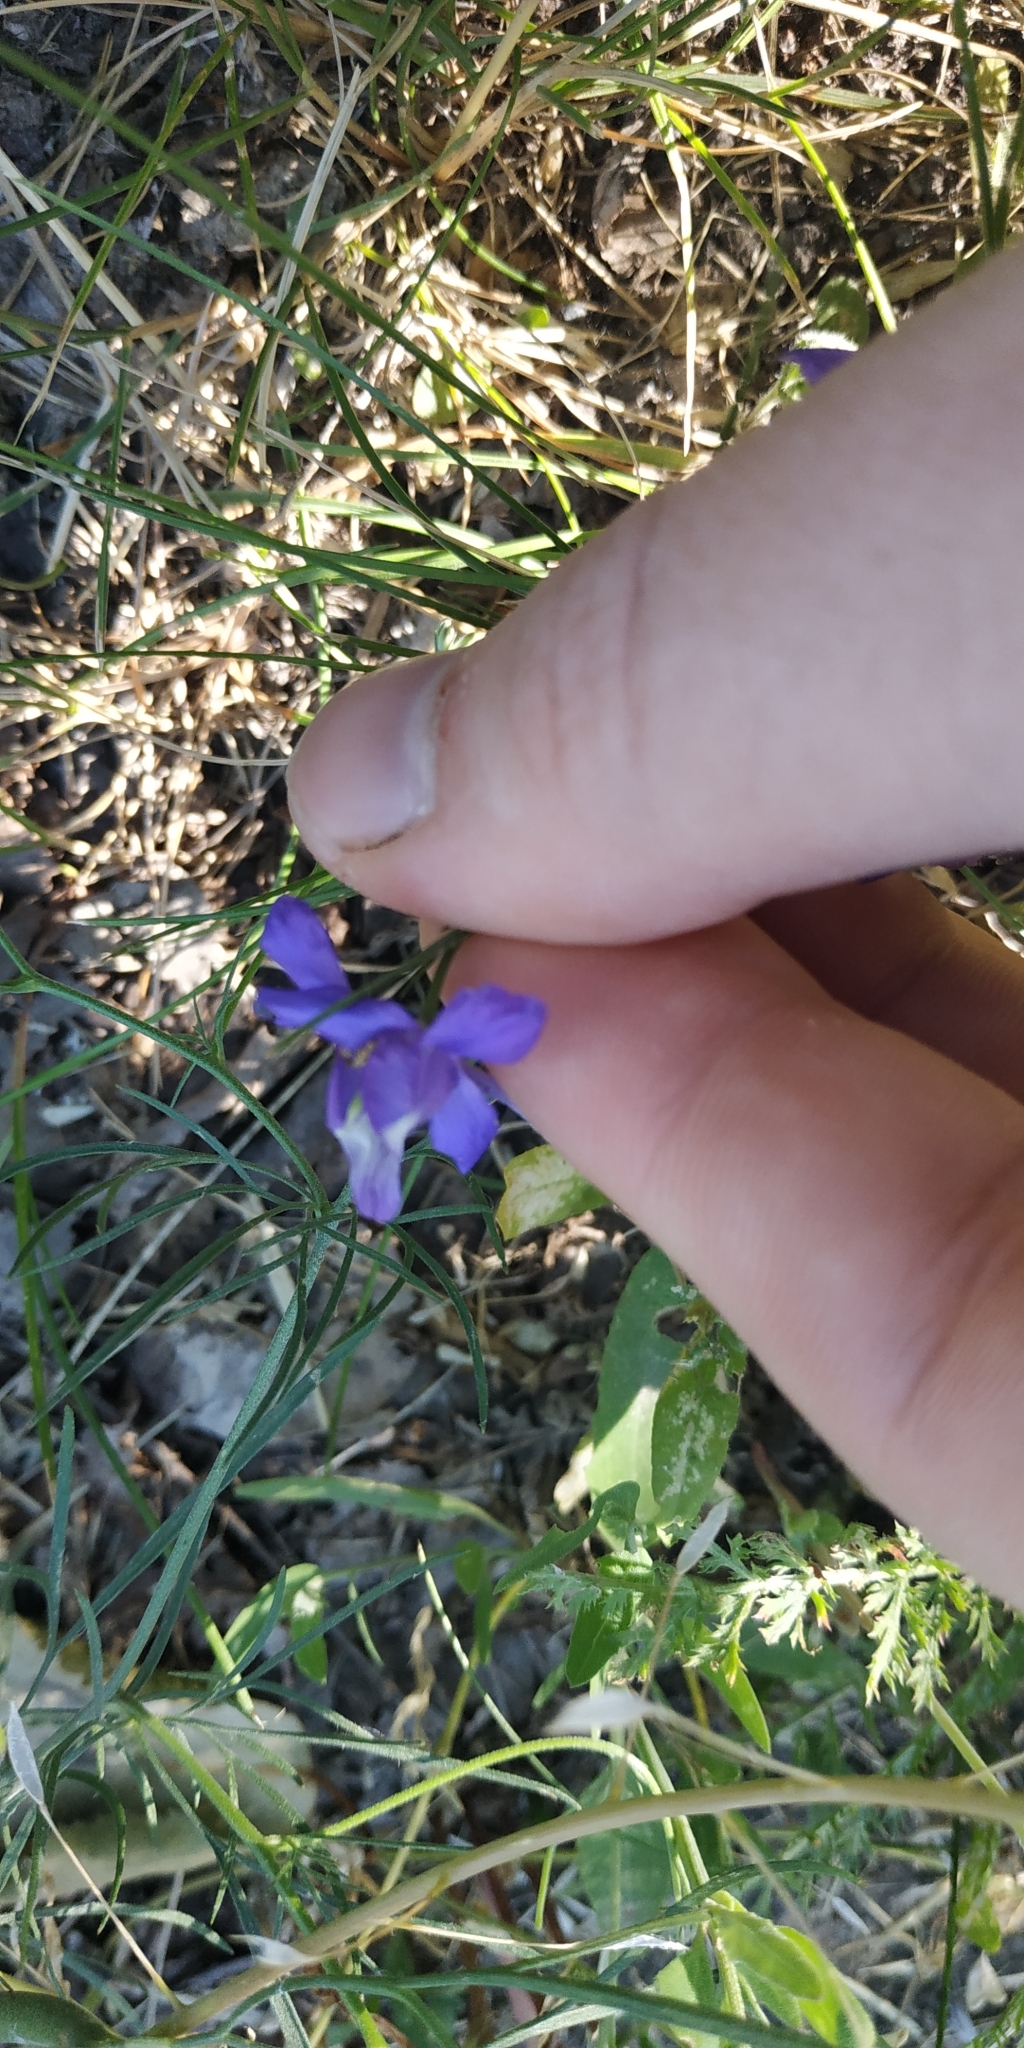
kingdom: Plantae
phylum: Tracheophyta
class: Magnoliopsida
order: Ranunculales
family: Ranunculaceae
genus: Delphinium
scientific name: Delphinium consolida
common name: Branching larkspur
